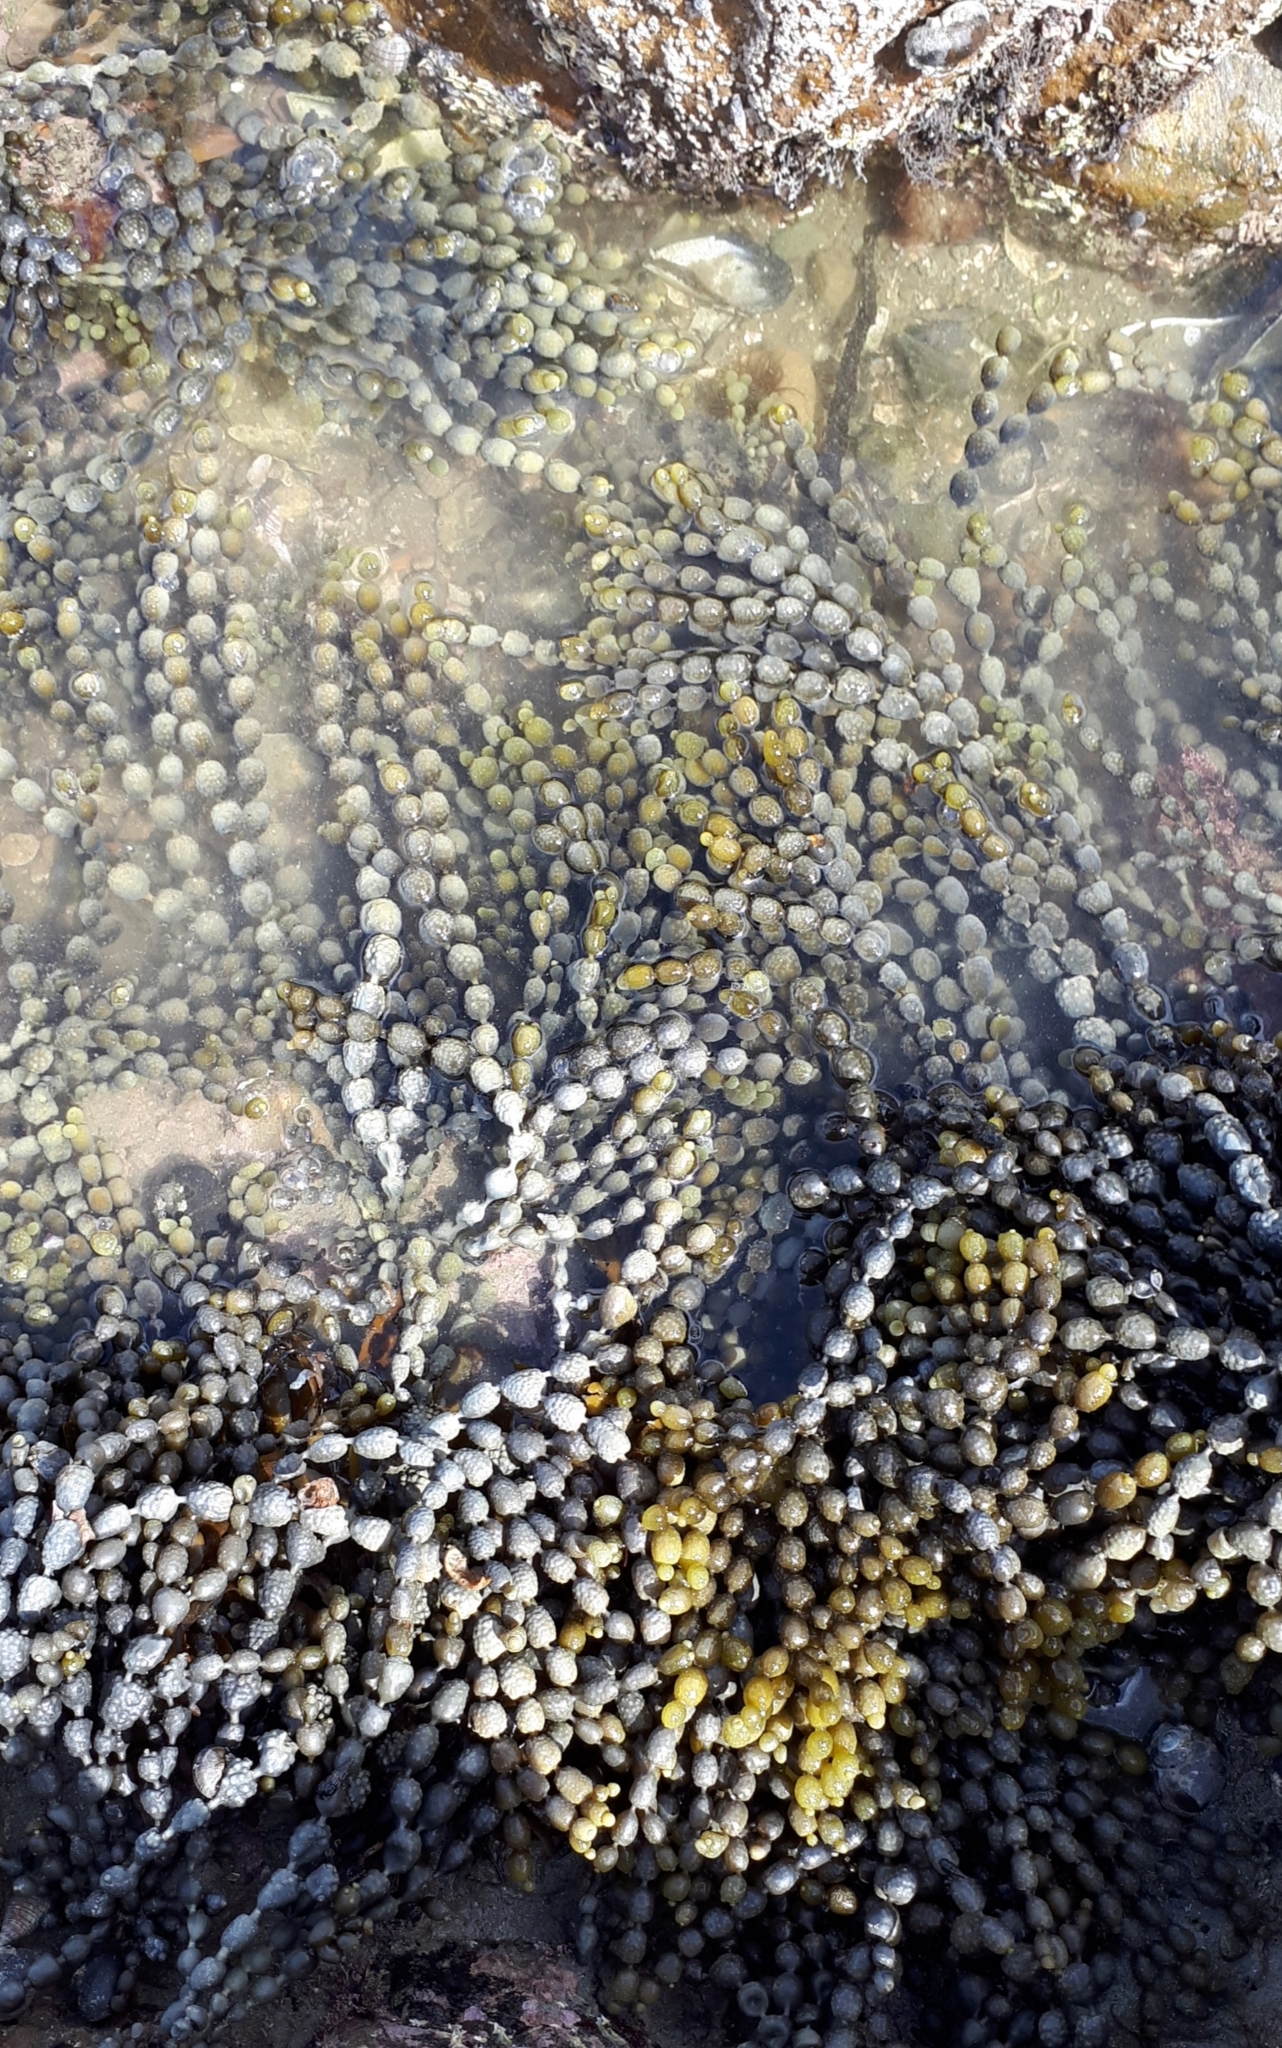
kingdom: Chromista
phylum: Ochrophyta
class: Phaeophyceae
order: Fucales
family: Hormosiraceae
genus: Hormosira
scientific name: Hormosira banksii
